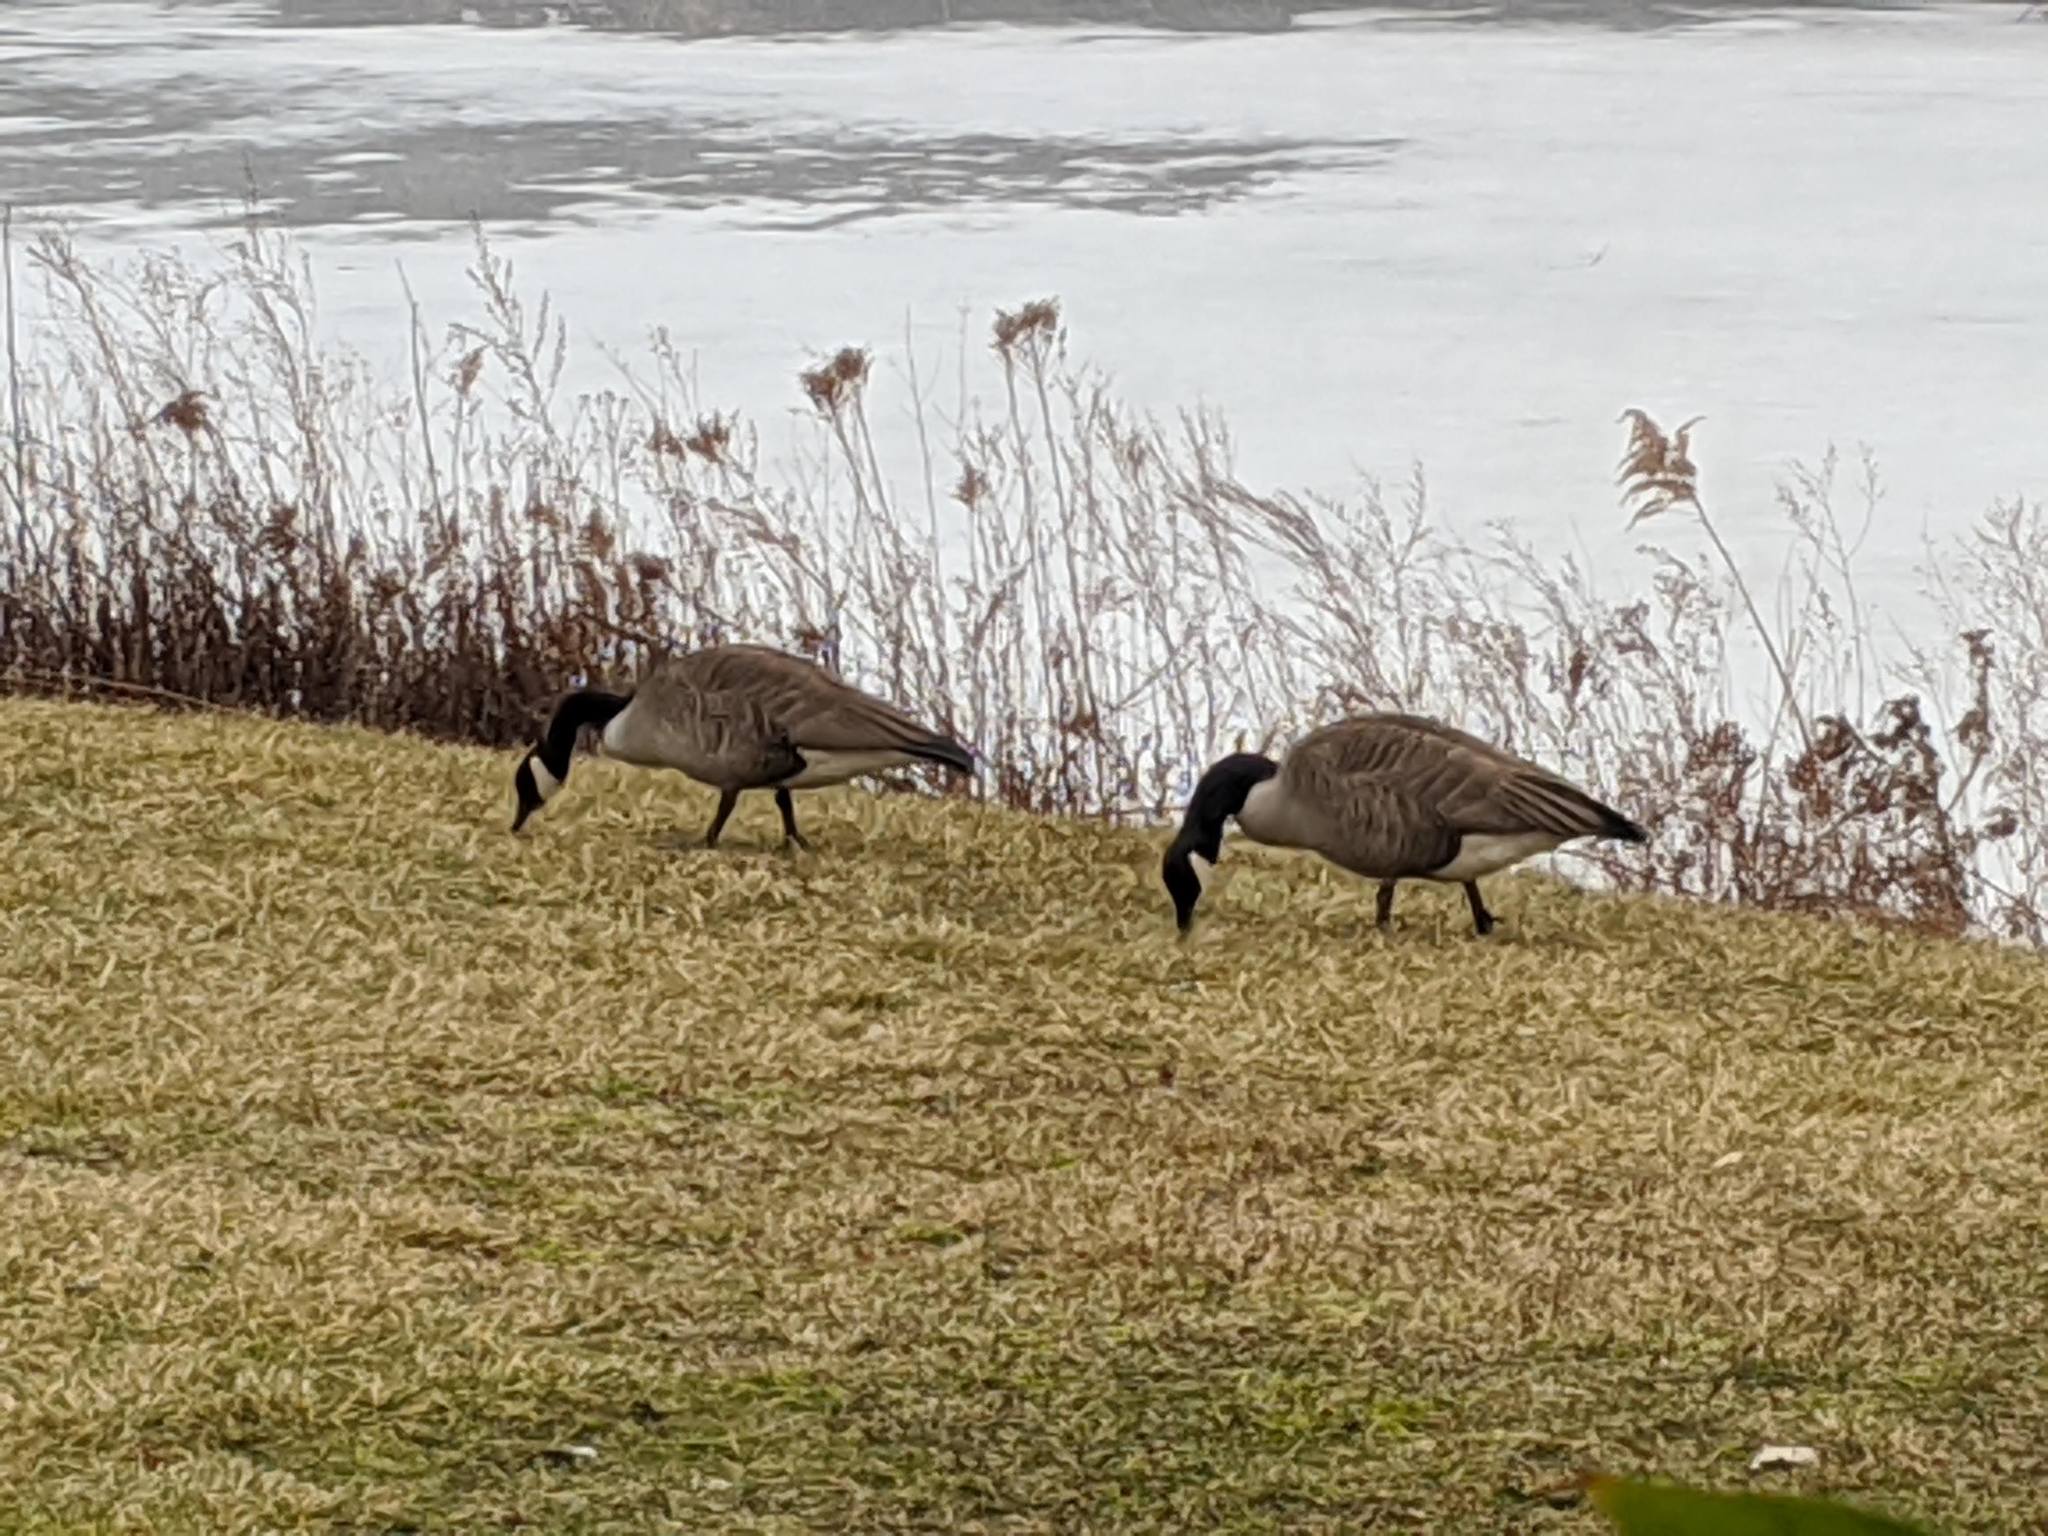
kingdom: Animalia
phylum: Chordata
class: Aves
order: Anseriformes
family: Anatidae
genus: Branta
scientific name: Branta canadensis
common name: Canada goose
